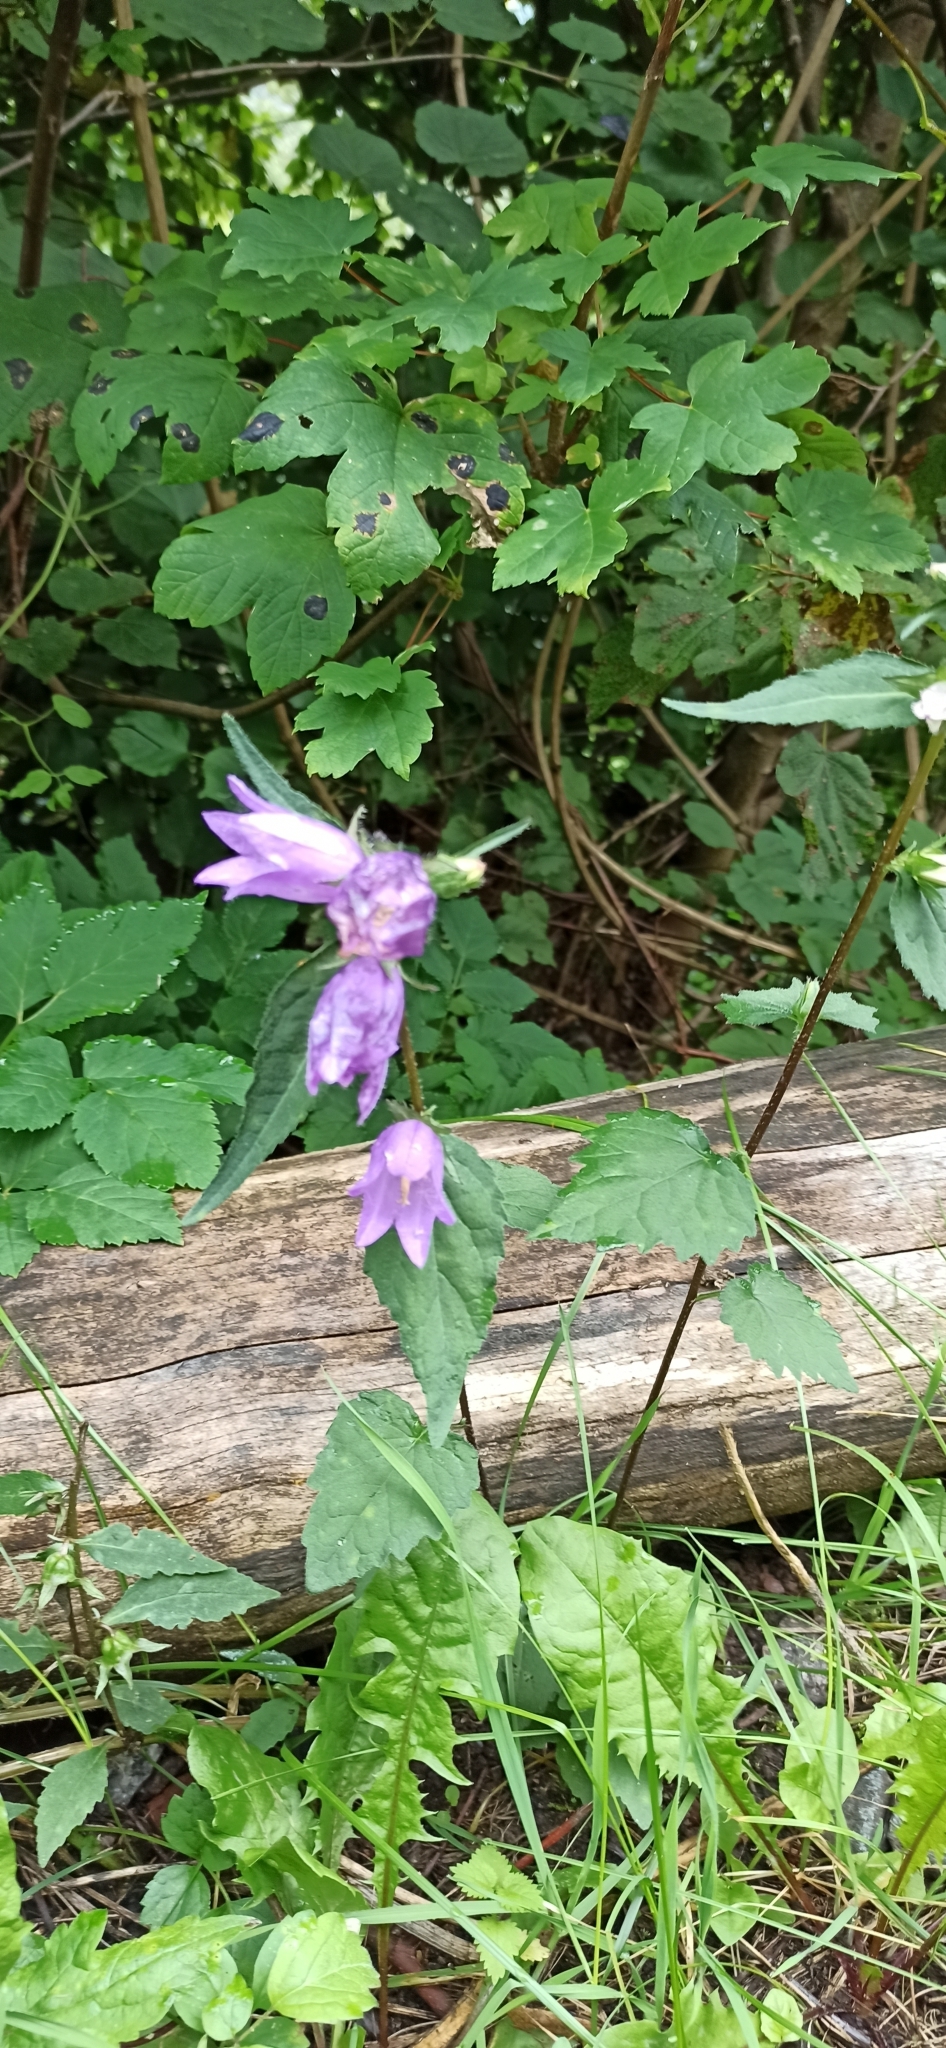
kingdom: Plantae
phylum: Tracheophyta
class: Magnoliopsida
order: Asterales
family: Campanulaceae
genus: Campanula
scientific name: Campanula trachelium
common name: Nettle-leaved bellflower
